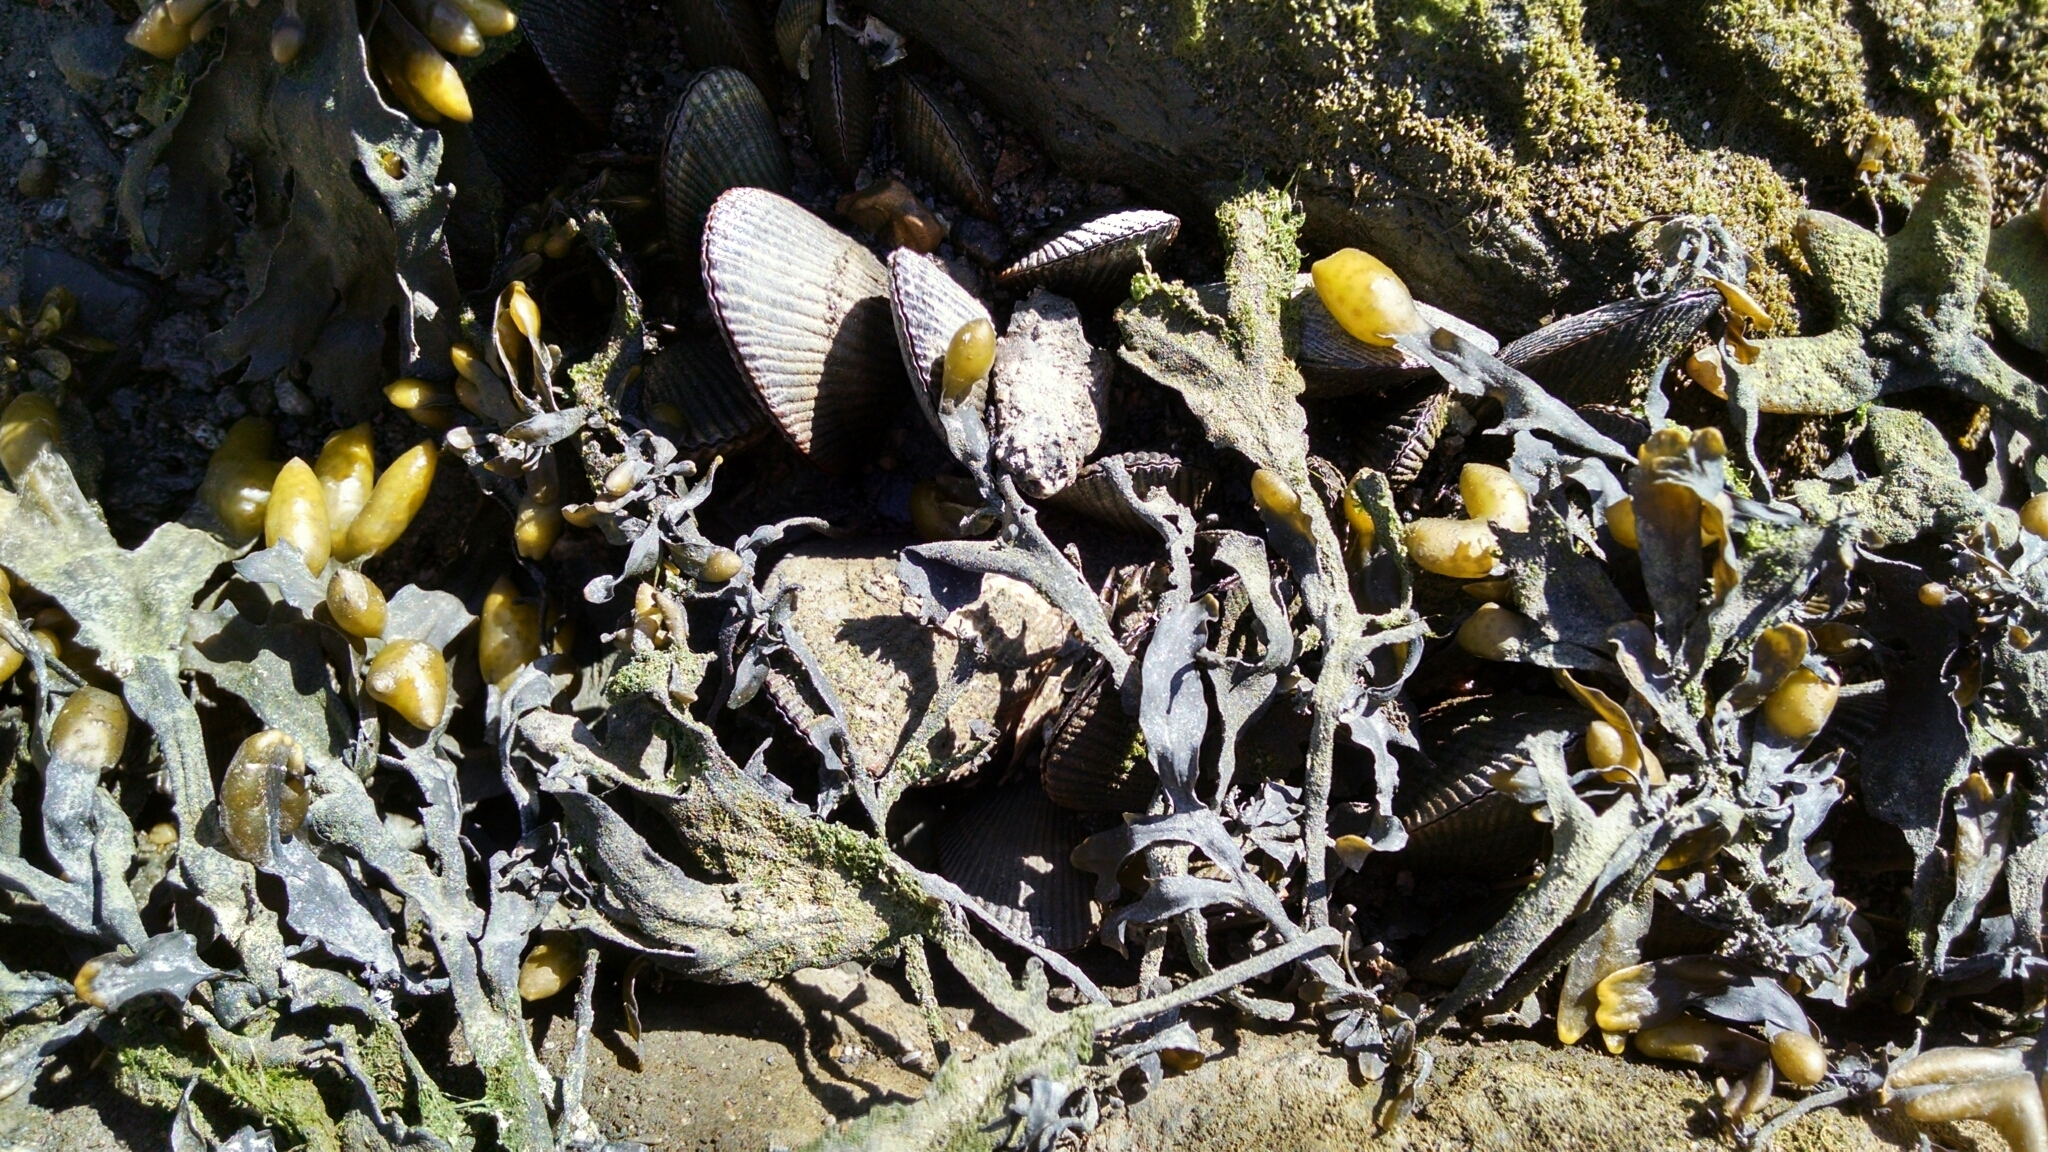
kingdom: Animalia
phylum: Mollusca
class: Bivalvia
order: Mytilida
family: Mytilidae
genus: Geukensia
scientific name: Geukensia demissa
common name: Ribbed mussel
